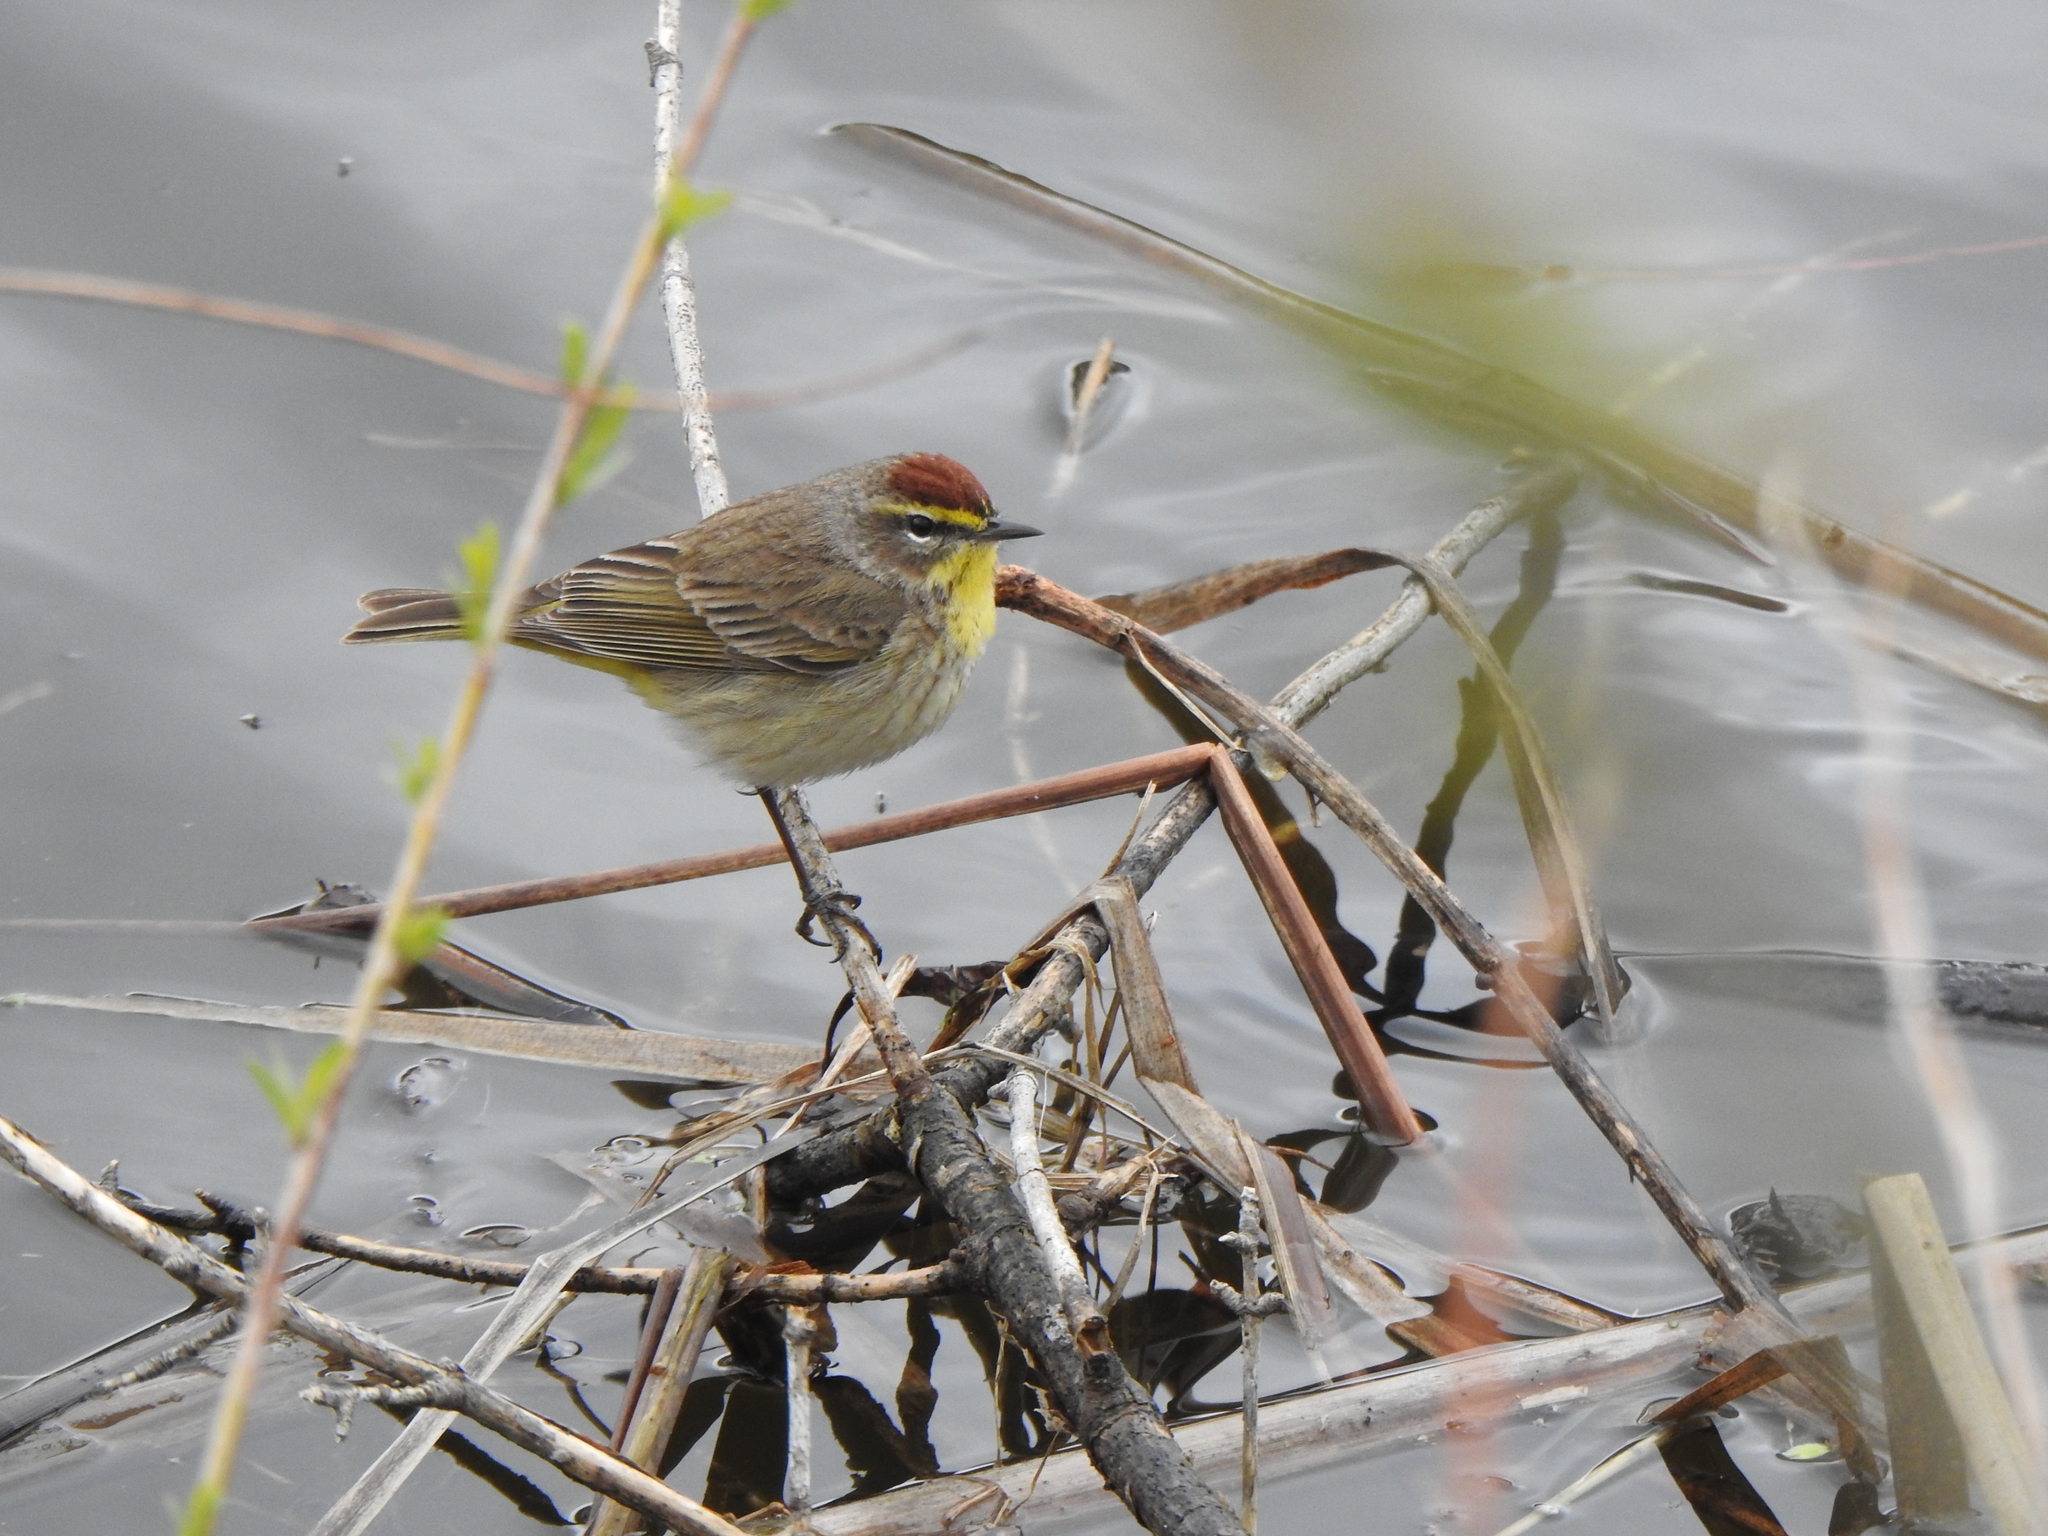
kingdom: Animalia
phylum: Chordata
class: Aves
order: Passeriformes
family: Parulidae
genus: Setophaga
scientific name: Setophaga palmarum
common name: Palm warbler
